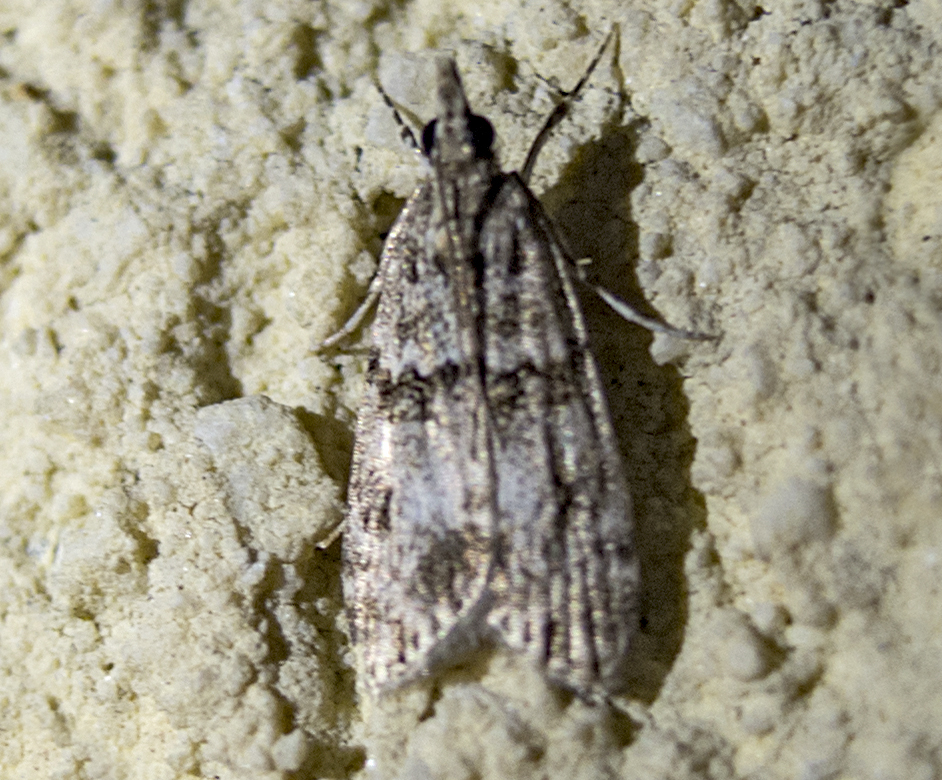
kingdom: Animalia
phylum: Arthropoda
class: Insecta
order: Lepidoptera
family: Crambidae
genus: Eudonia
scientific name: Eudonia mercurella
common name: Small grey
